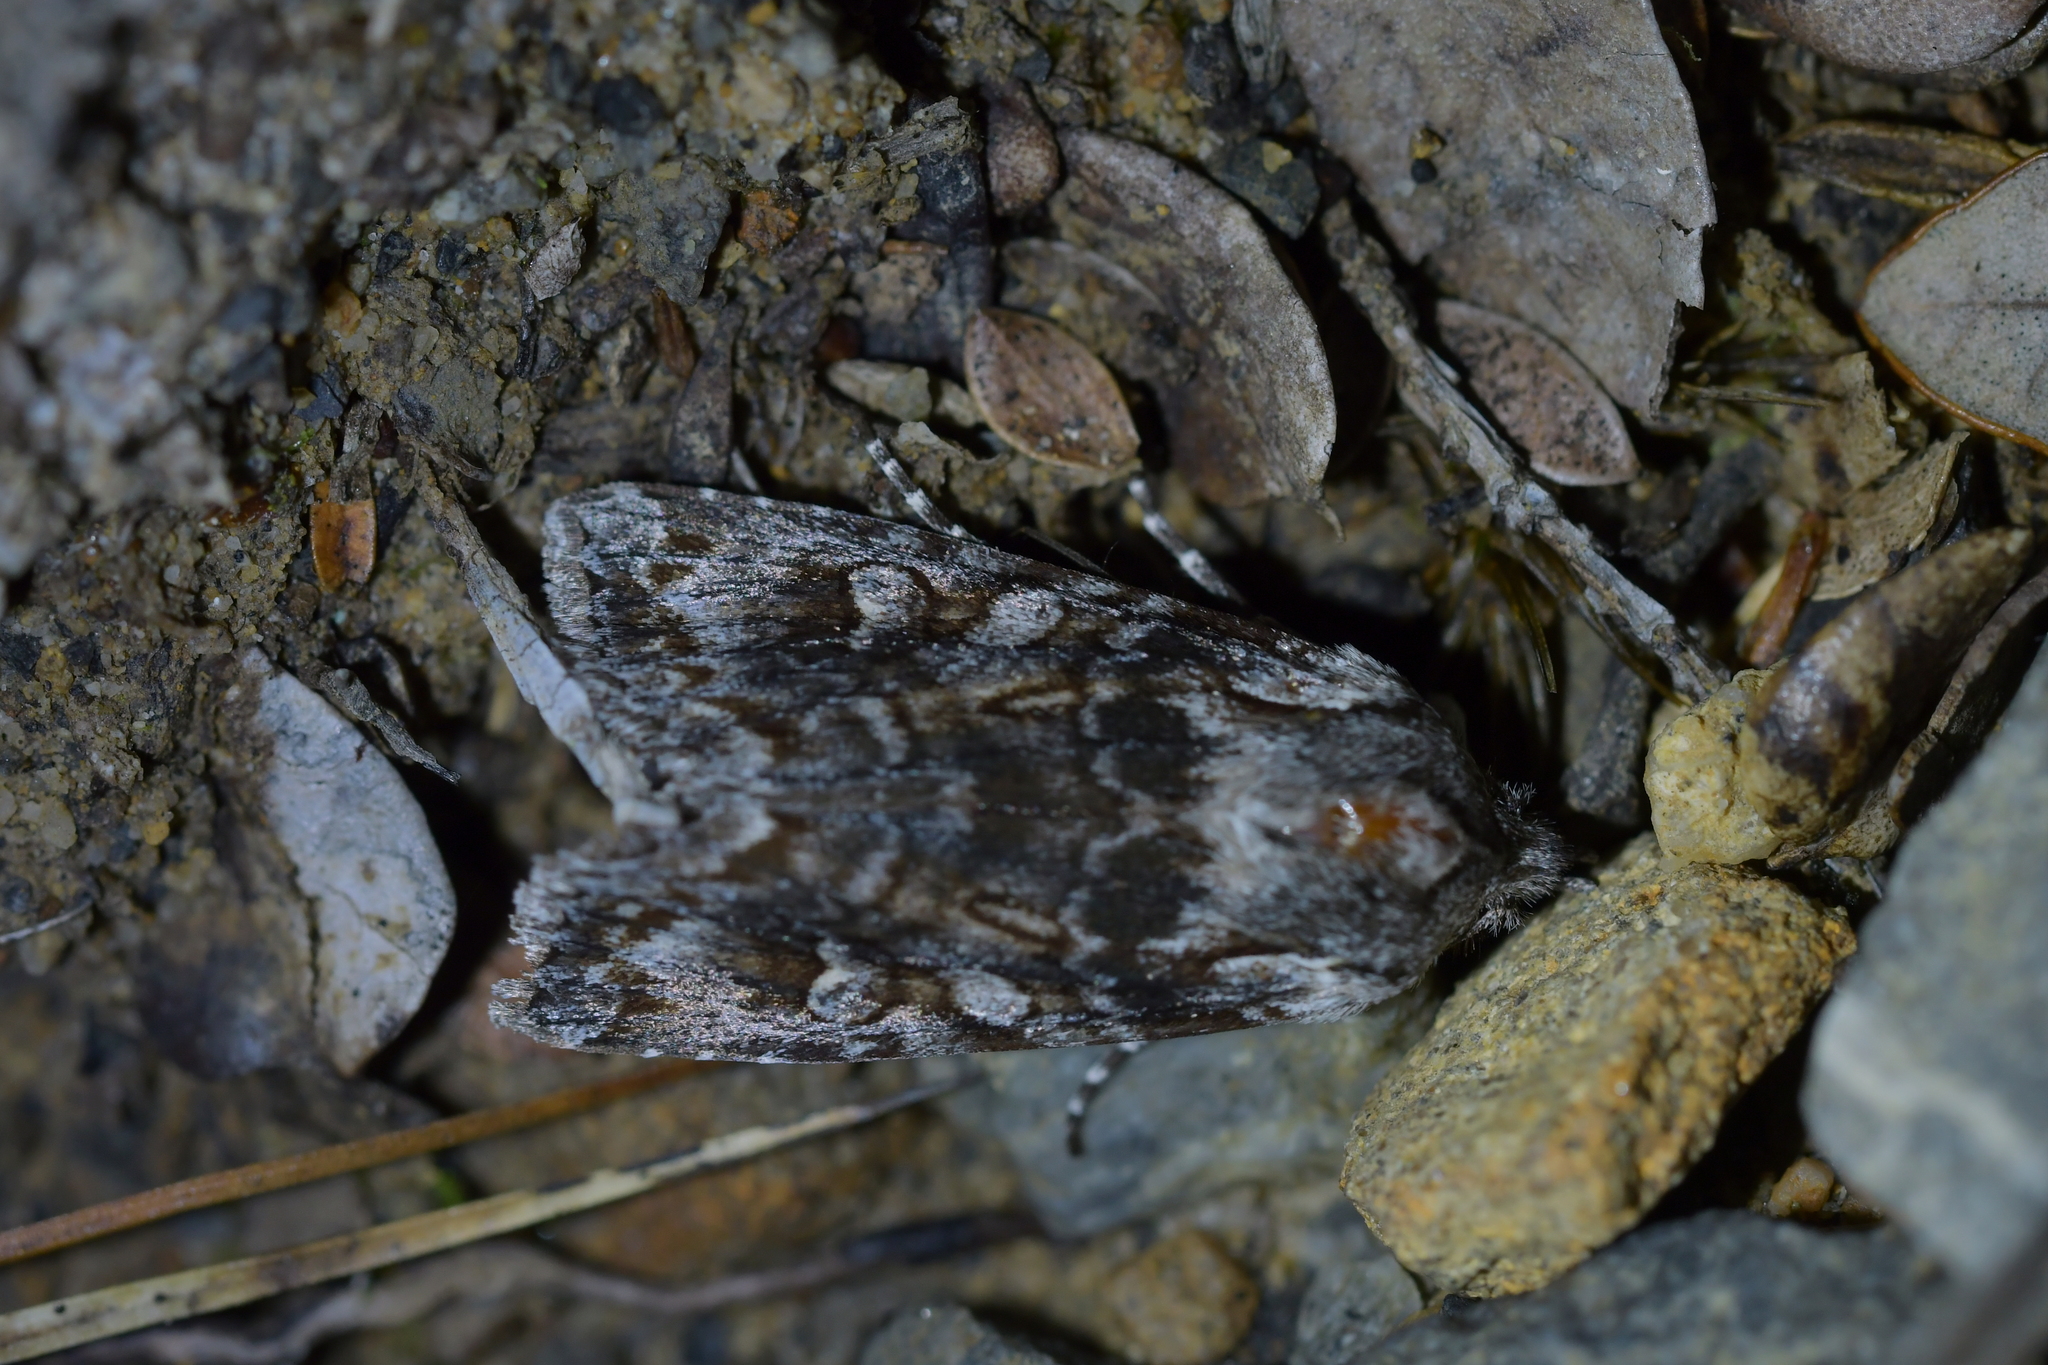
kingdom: Animalia
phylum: Arthropoda
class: Insecta
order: Lepidoptera
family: Noctuidae
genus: Physetica
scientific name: Physetica longstaffii
